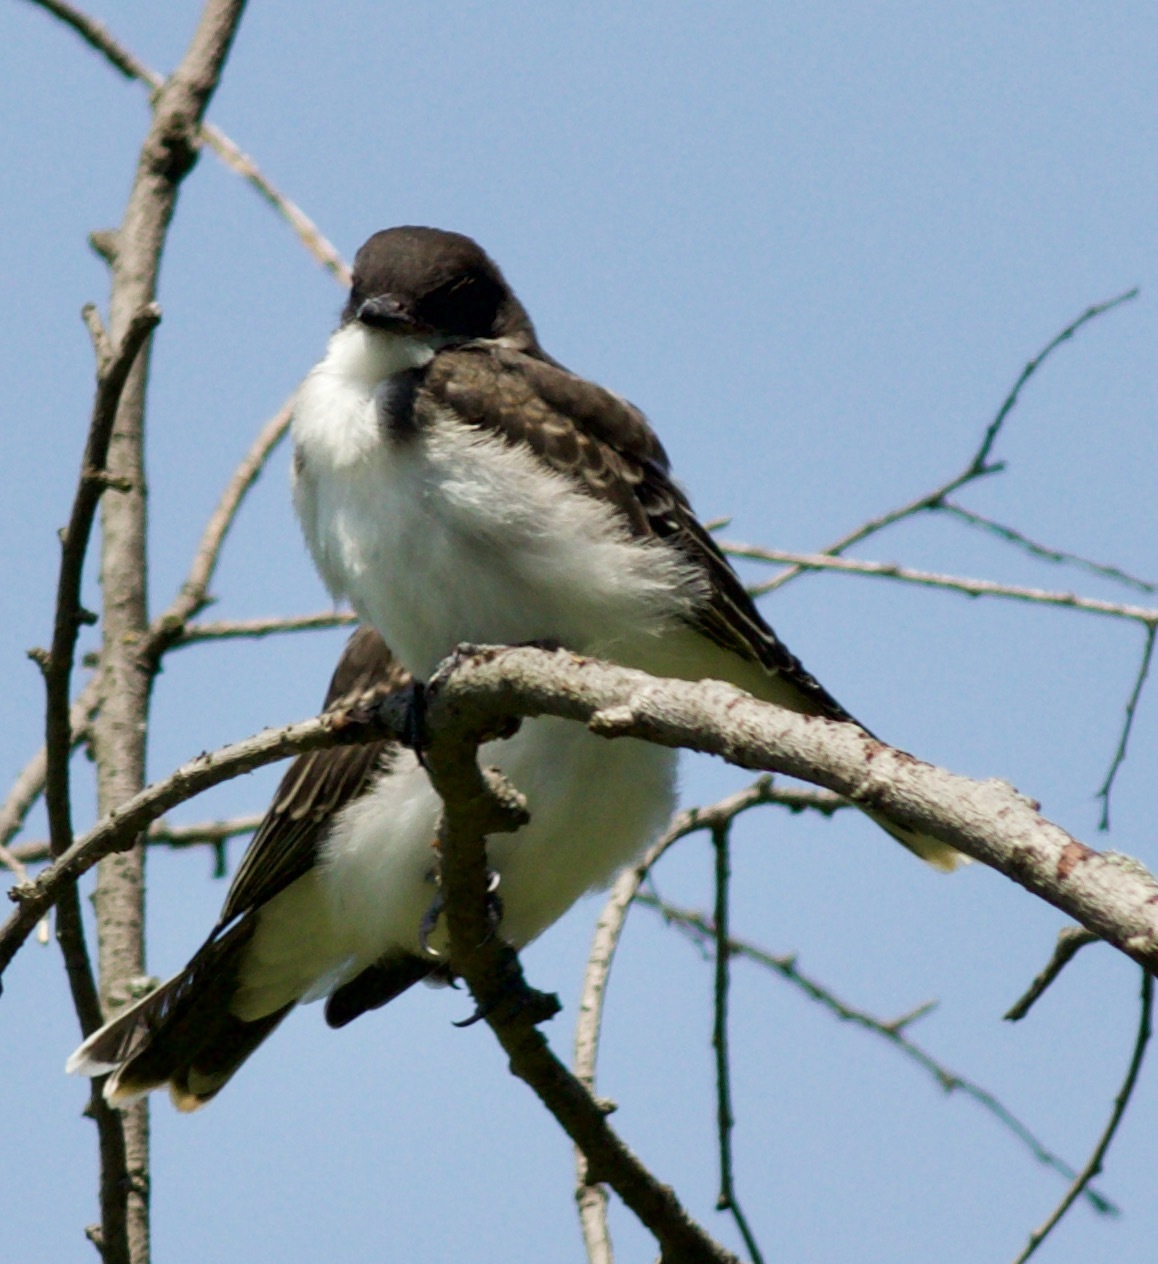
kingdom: Animalia
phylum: Chordata
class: Aves
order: Passeriformes
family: Tyrannidae
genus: Tyrannus
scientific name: Tyrannus tyrannus
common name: Eastern kingbird
